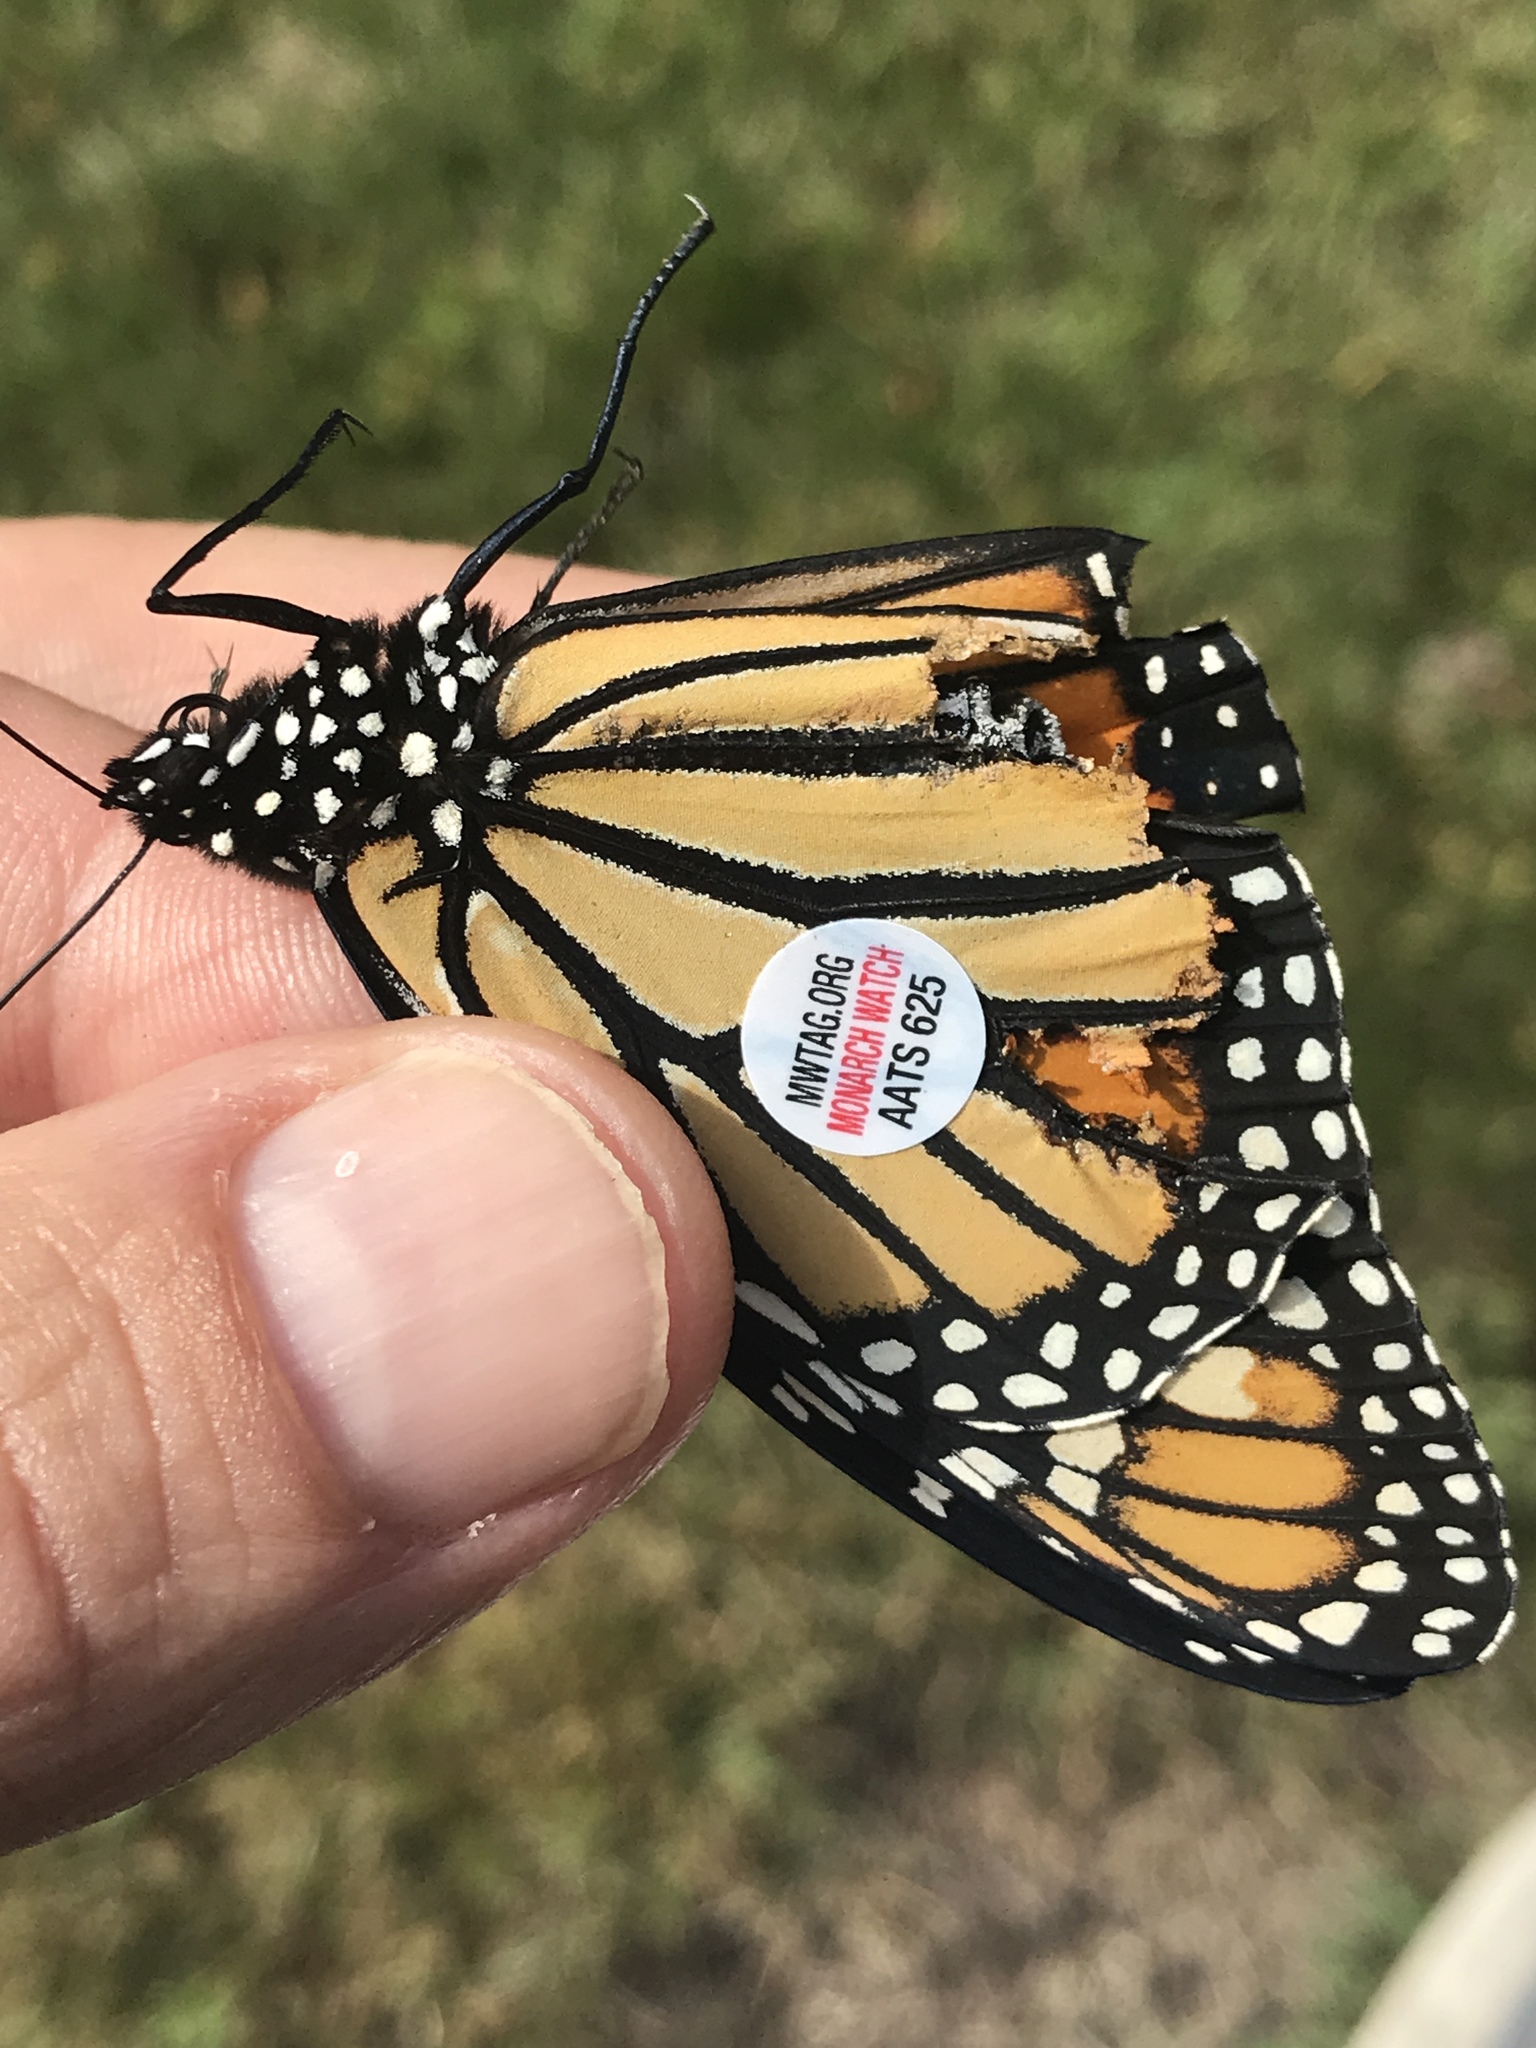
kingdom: Animalia
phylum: Arthropoda
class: Insecta
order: Lepidoptera
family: Nymphalidae
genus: Danaus
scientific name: Danaus plexippus
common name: Monarch
